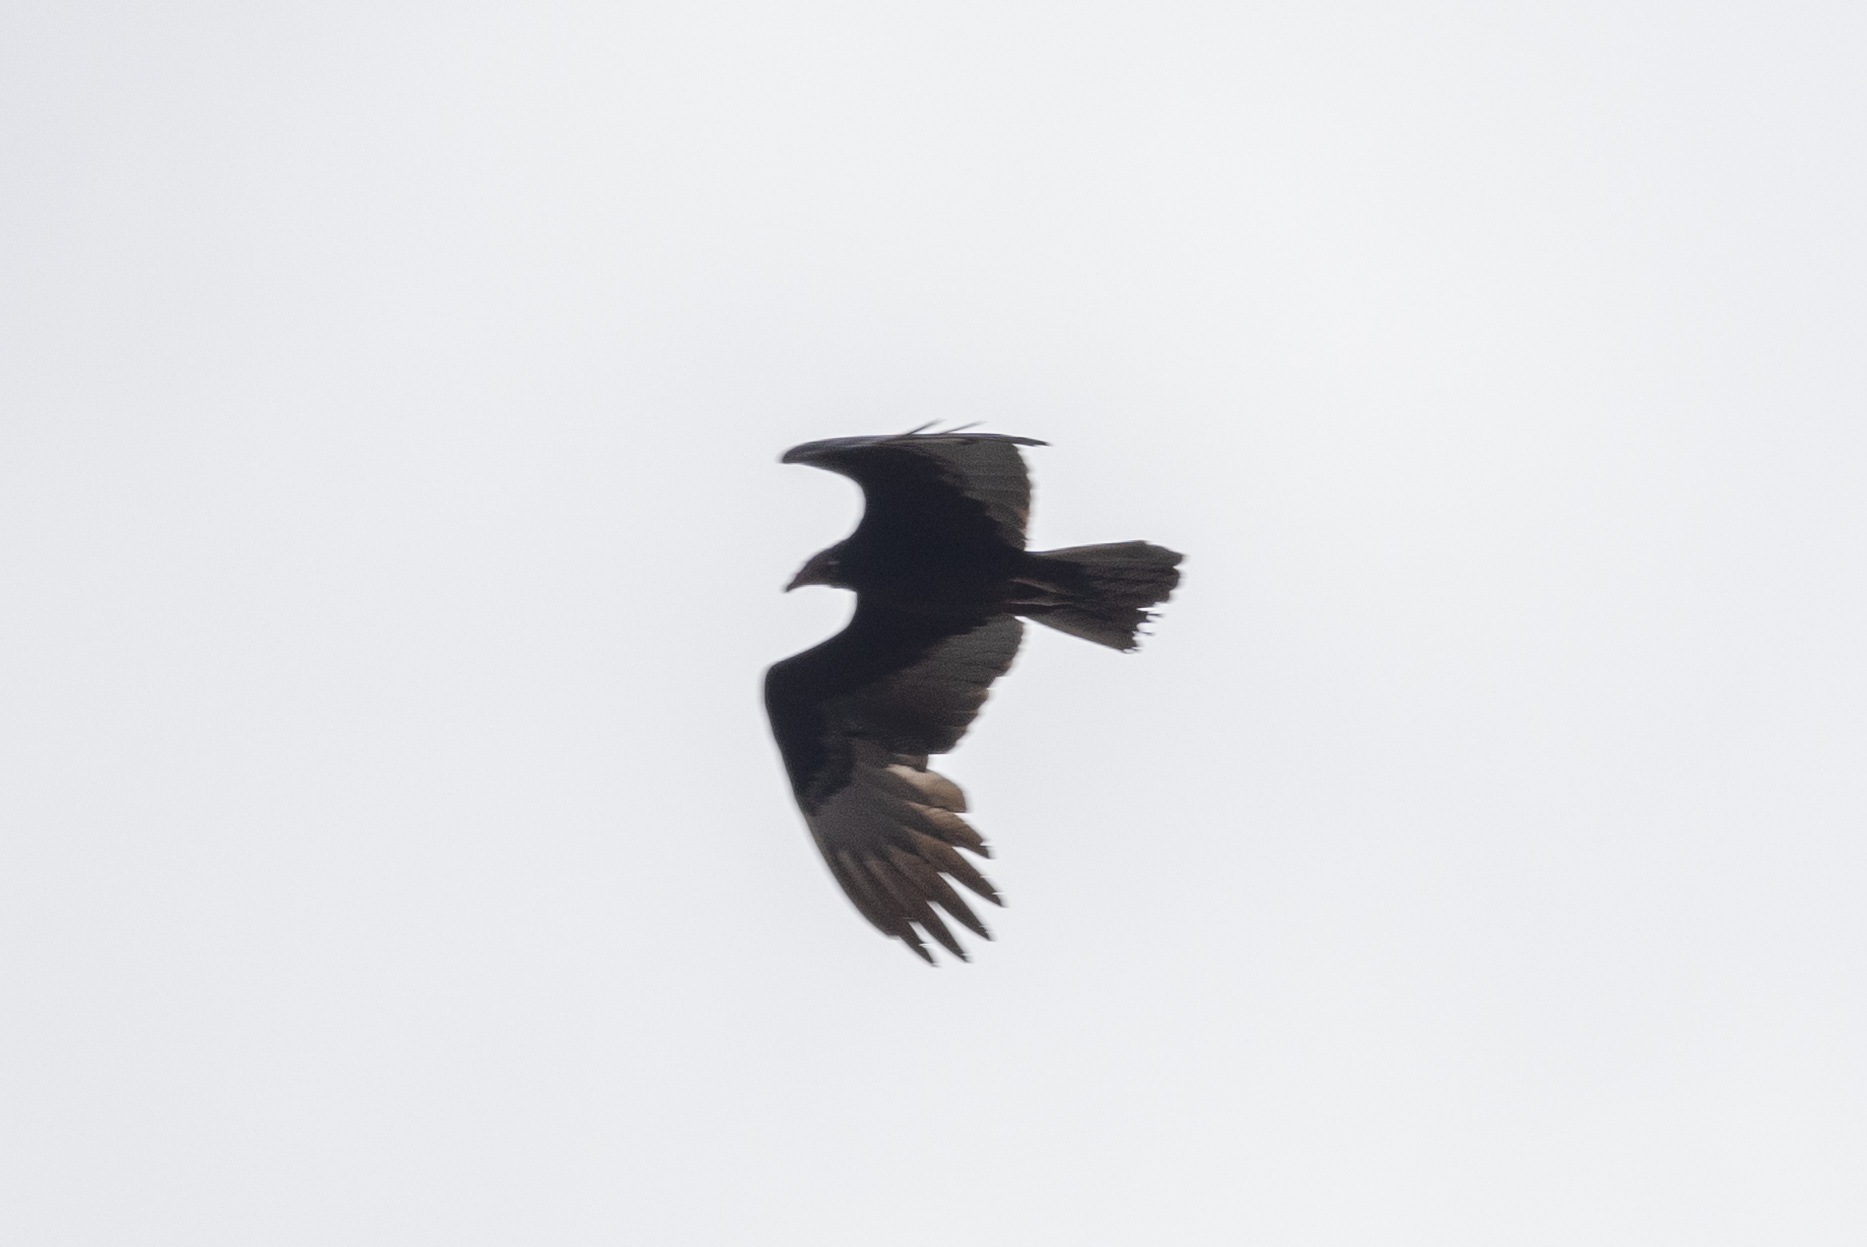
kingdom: Animalia
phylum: Chordata
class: Aves
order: Accipitriformes
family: Cathartidae
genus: Cathartes
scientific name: Cathartes aura
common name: Turkey vulture
